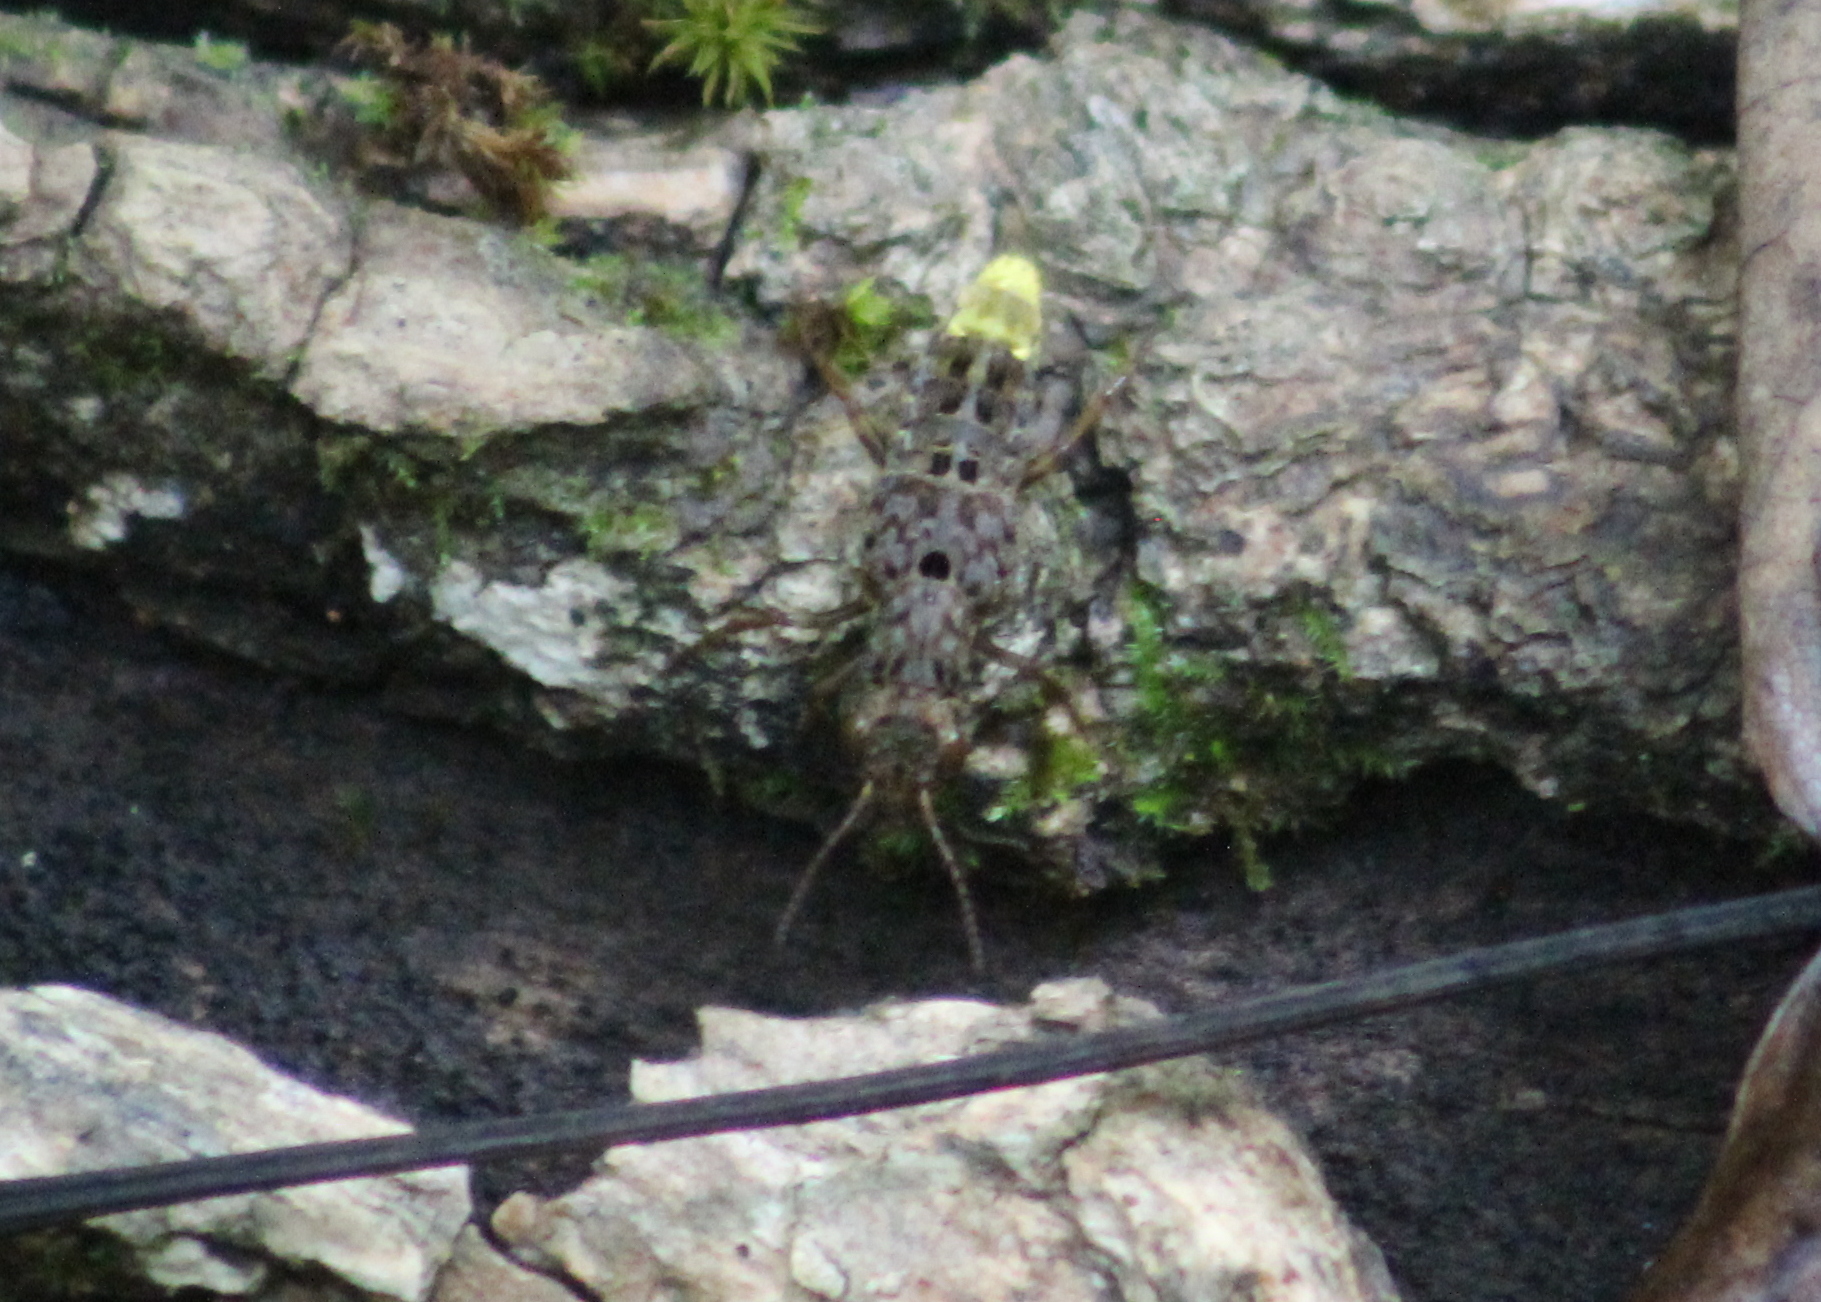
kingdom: Animalia
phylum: Arthropoda
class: Insecta
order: Coleoptera
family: Staphylinidae
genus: Ontholestes
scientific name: Ontholestes cingulatus
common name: Gold-and-brown rove beetle
